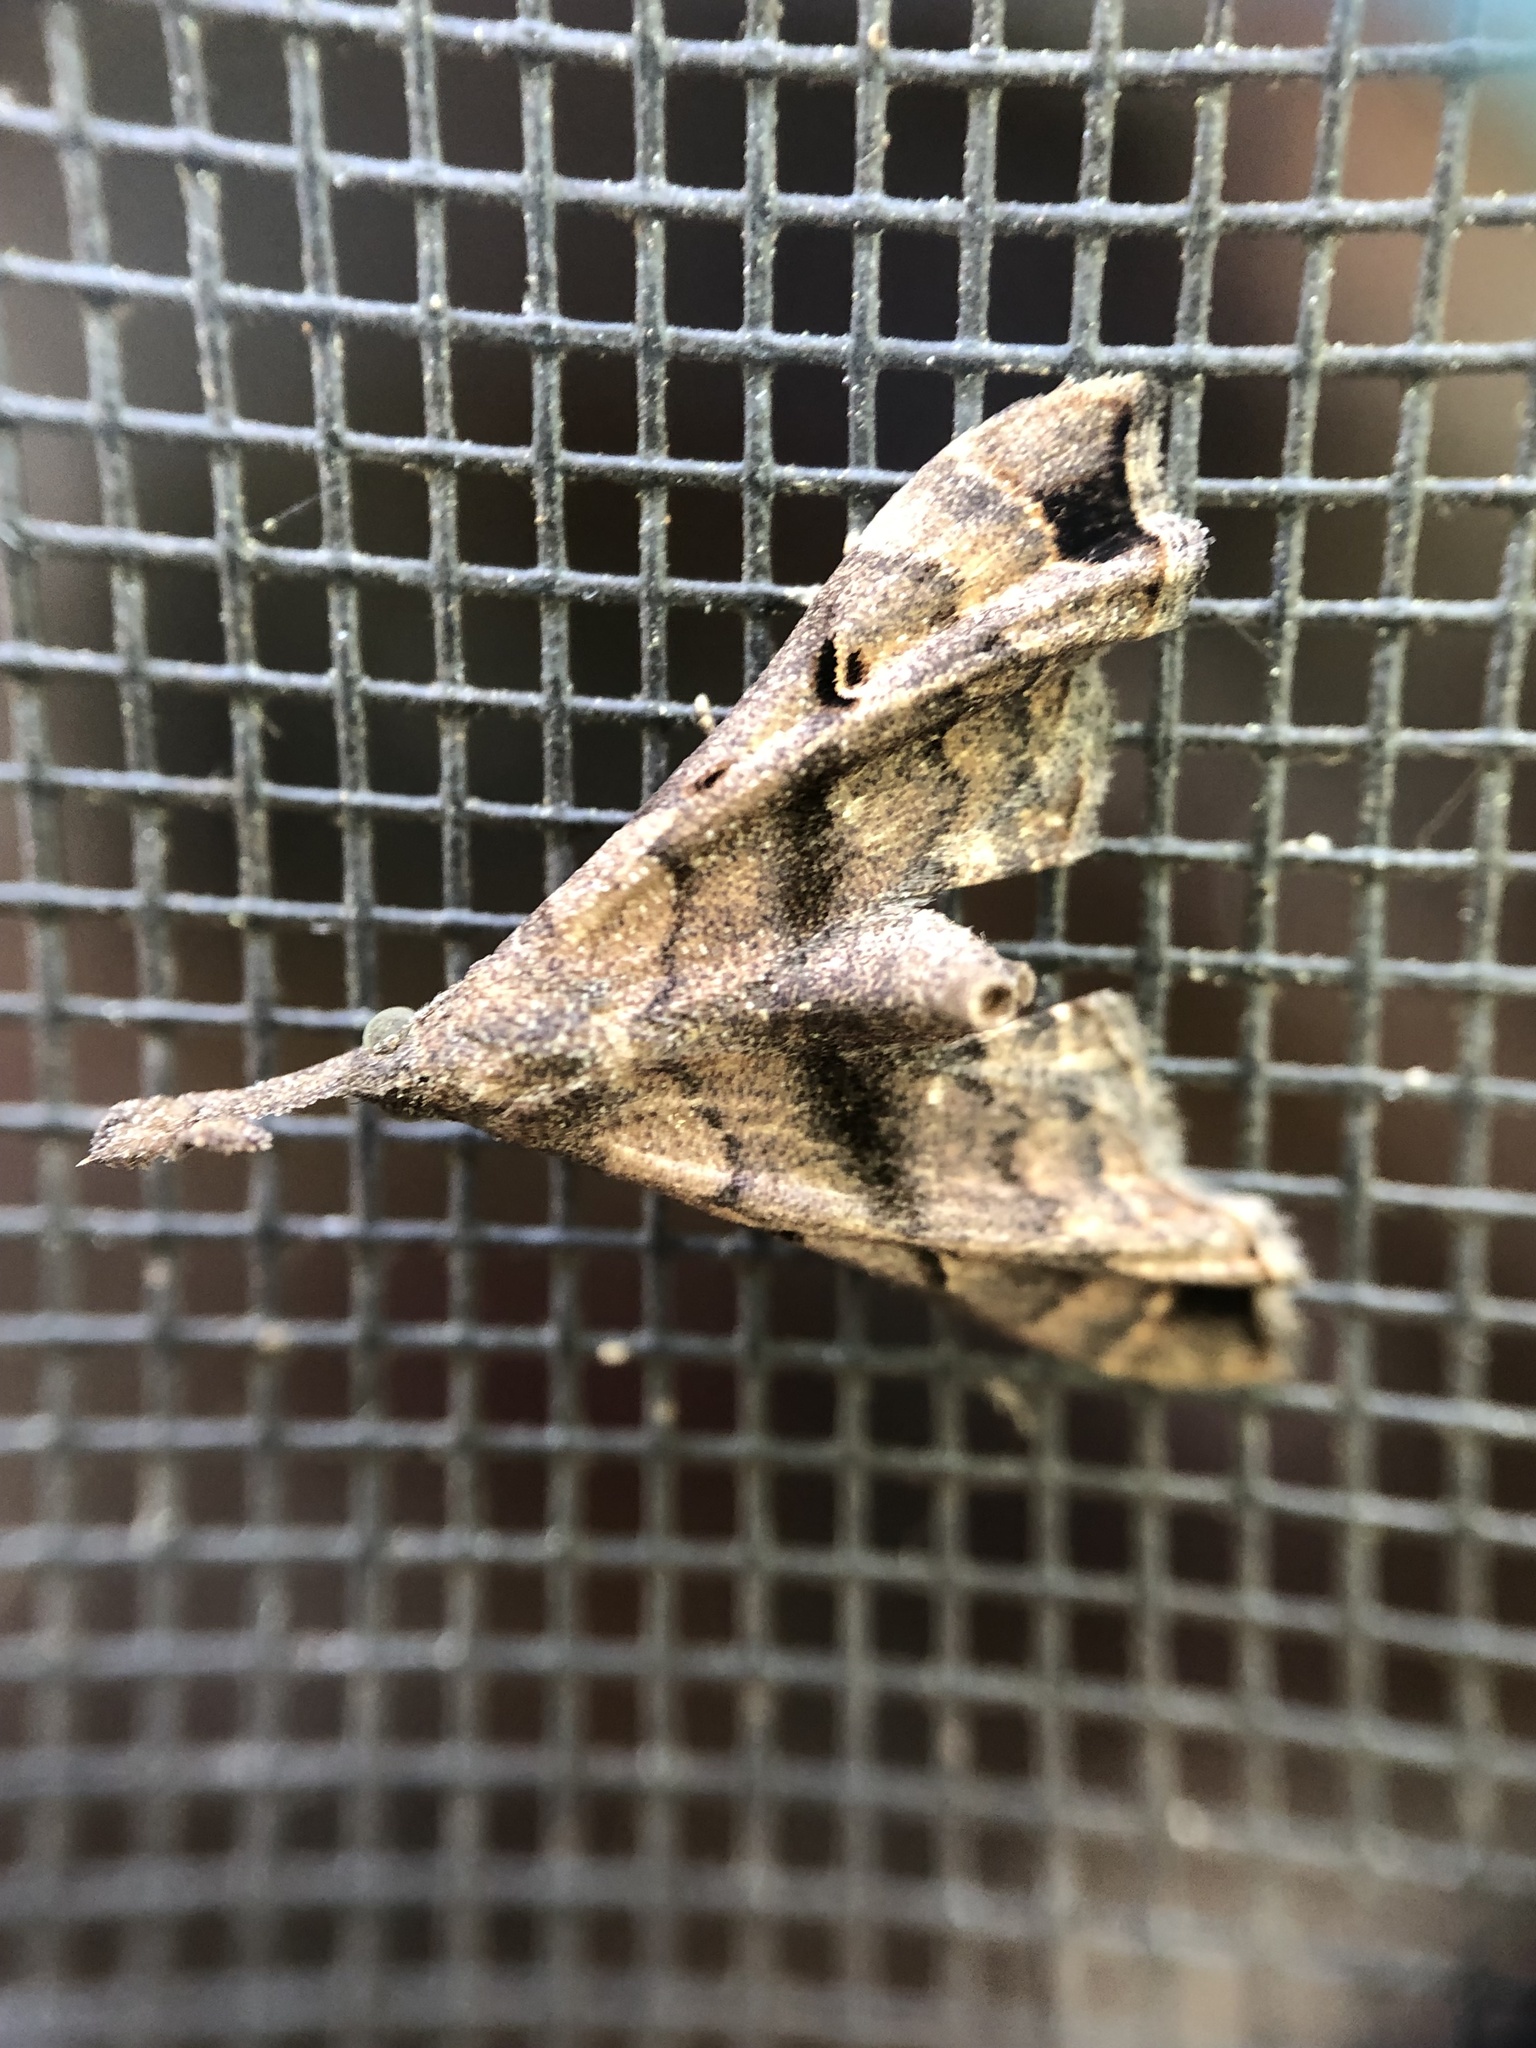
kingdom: Animalia
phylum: Arthropoda
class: Insecta
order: Lepidoptera
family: Erebidae
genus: Palthis
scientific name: Palthis asopialis
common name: Faint-spotted palthis moth
